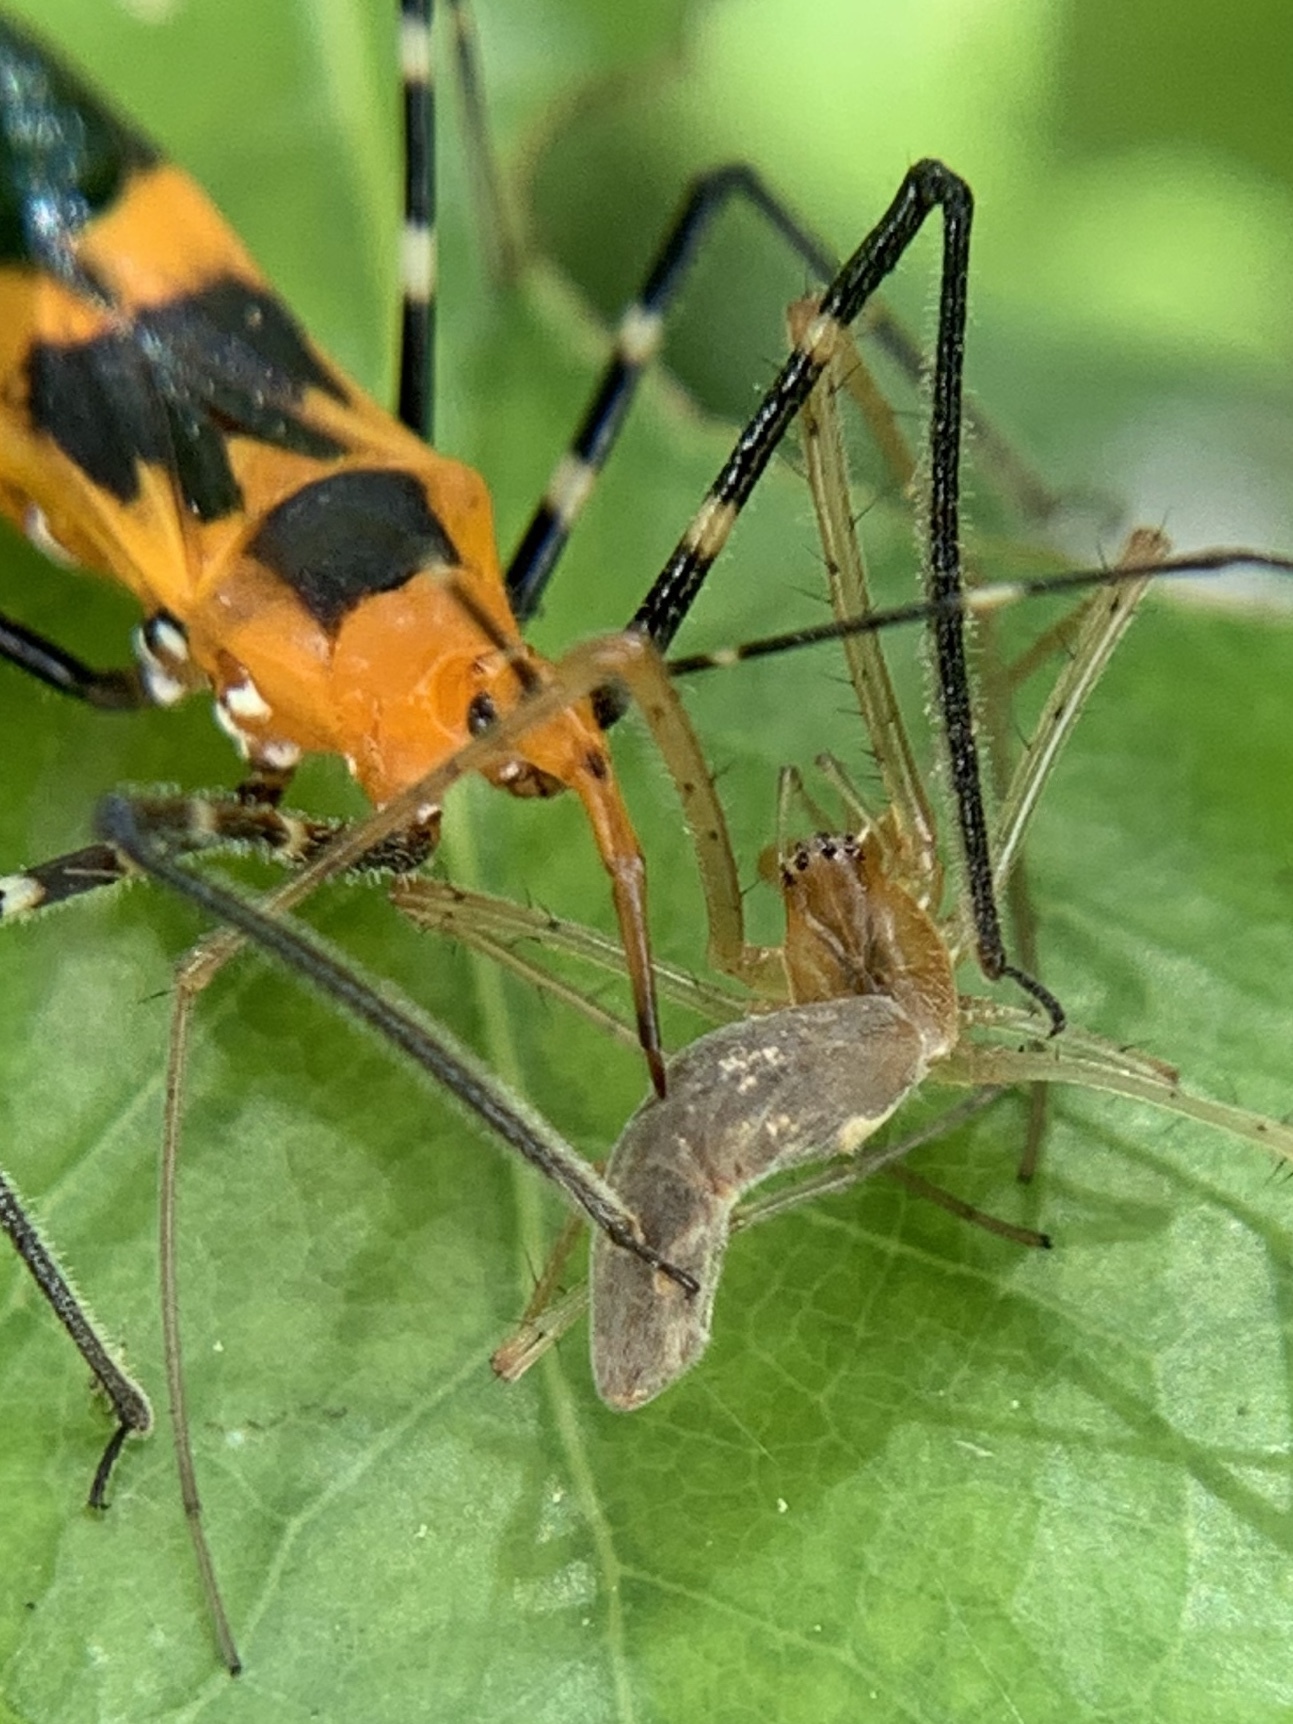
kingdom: Animalia
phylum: Arthropoda
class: Insecta
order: Hemiptera
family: Reduviidae
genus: Zelus
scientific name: Zelus longipes
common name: Milkweed assassin bug
